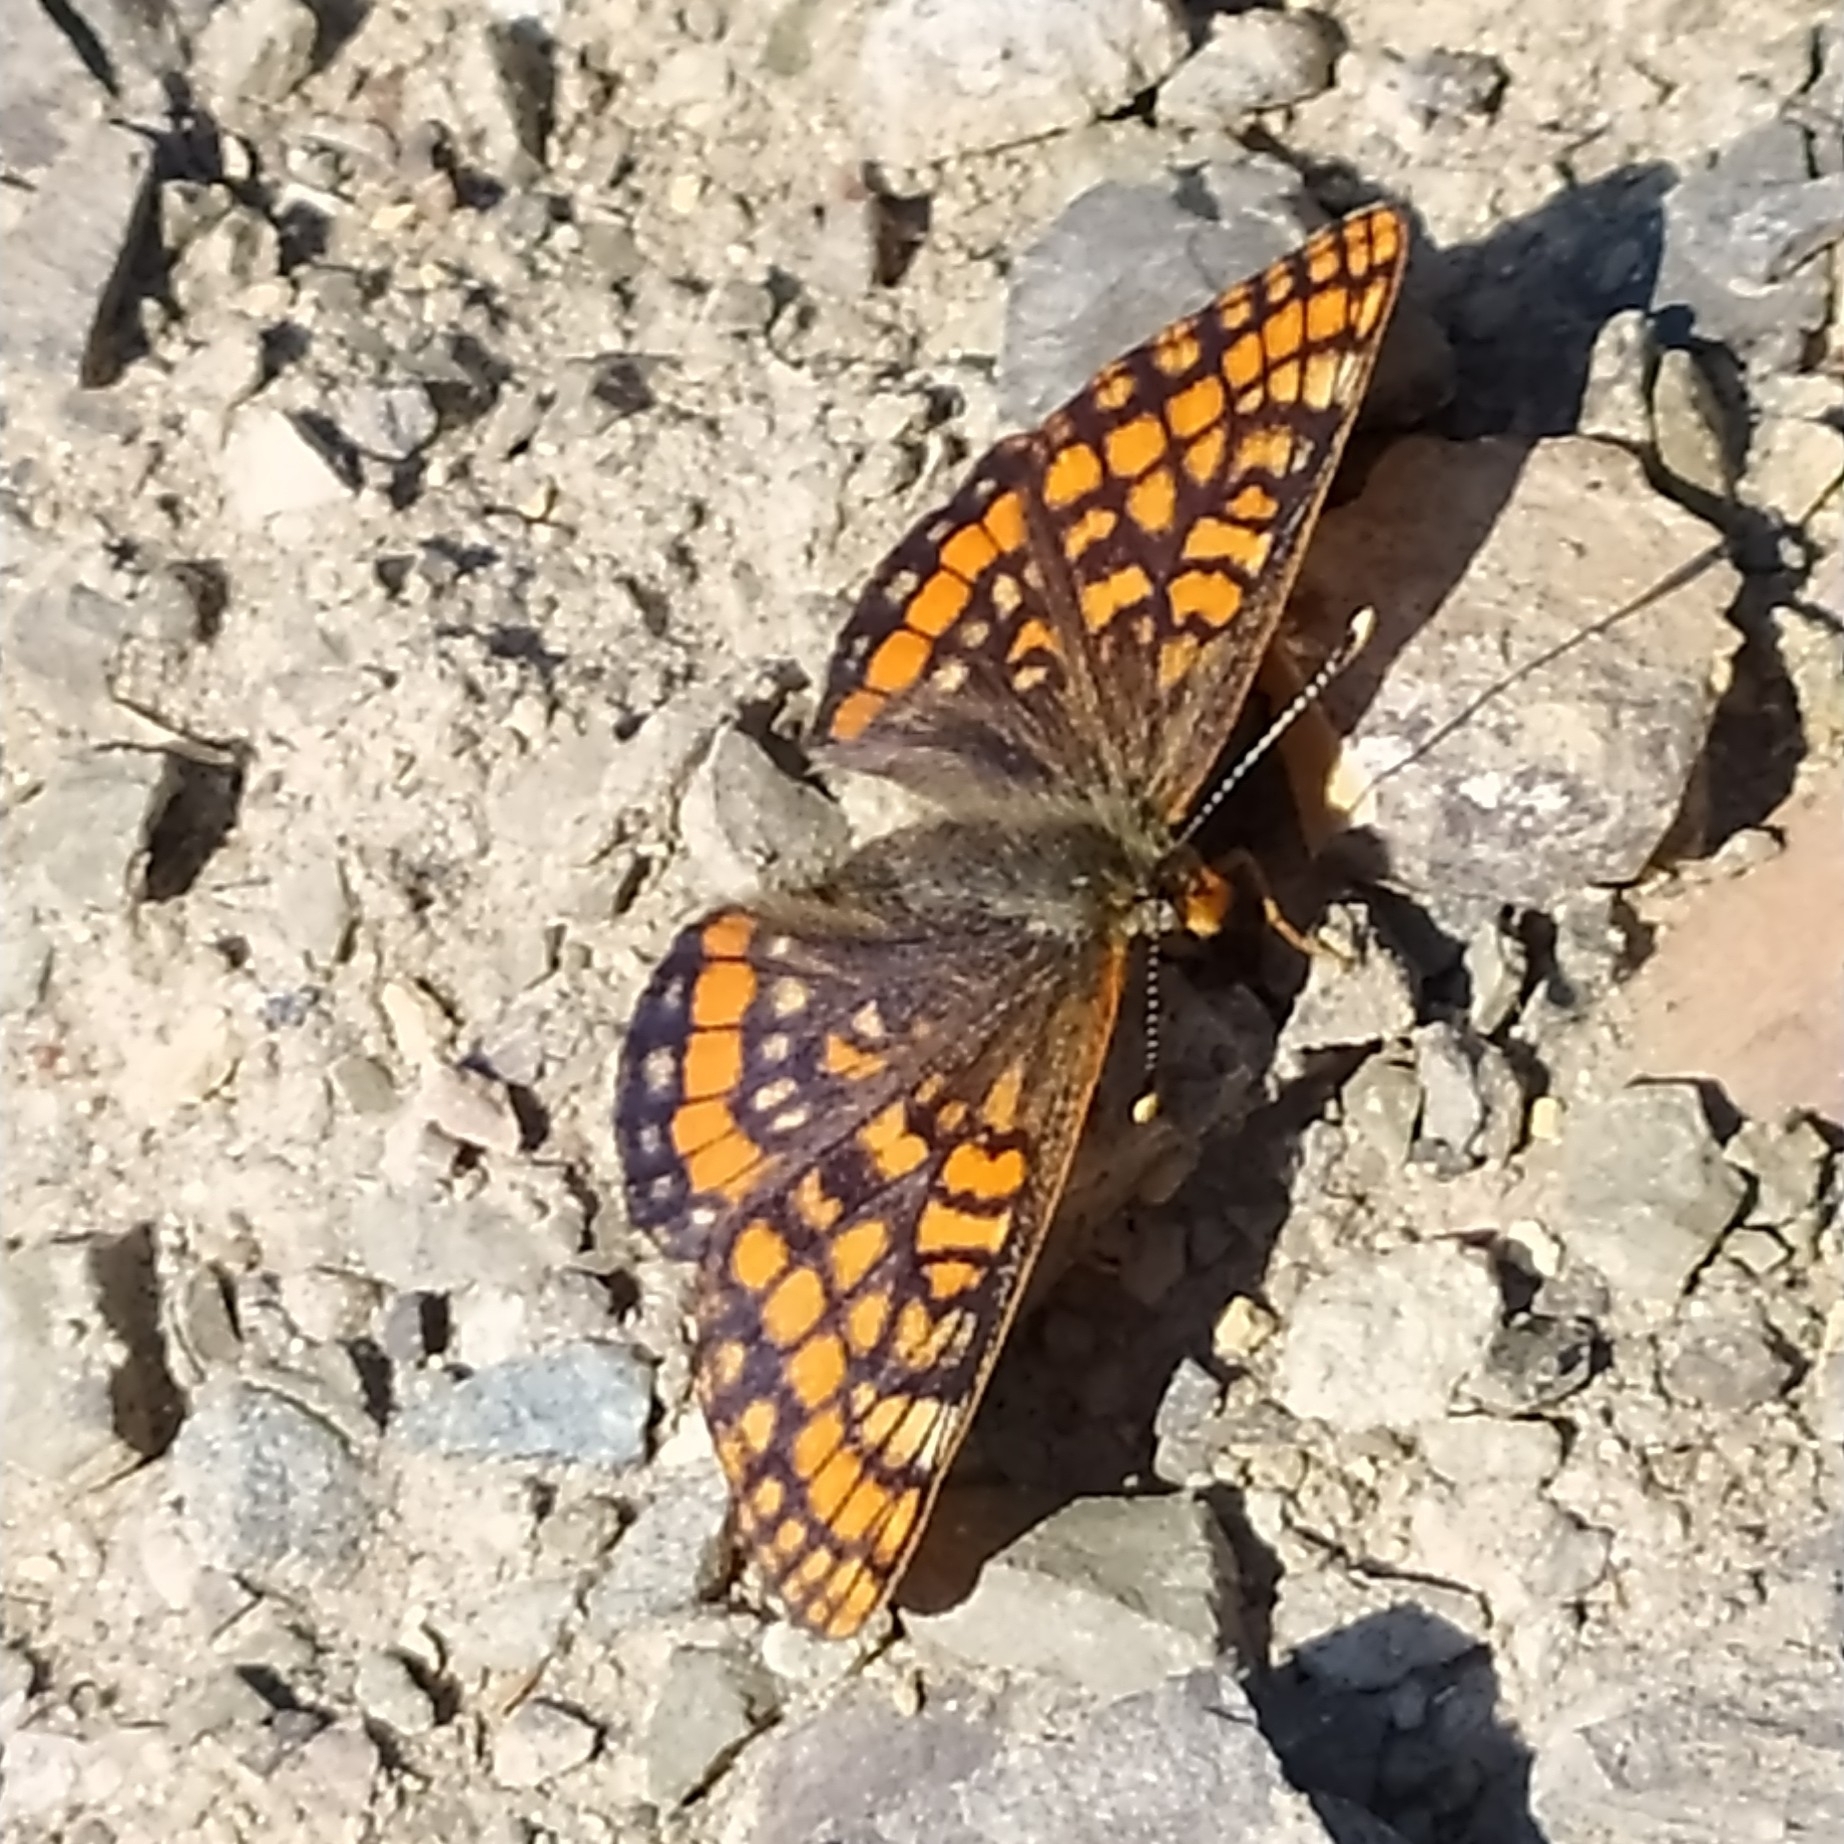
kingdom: Animalia
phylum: Arthropoda
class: Insecta
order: Lepidoptera
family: Nymphalidae
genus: Hypodryas
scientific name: Hypodryas intermedia
